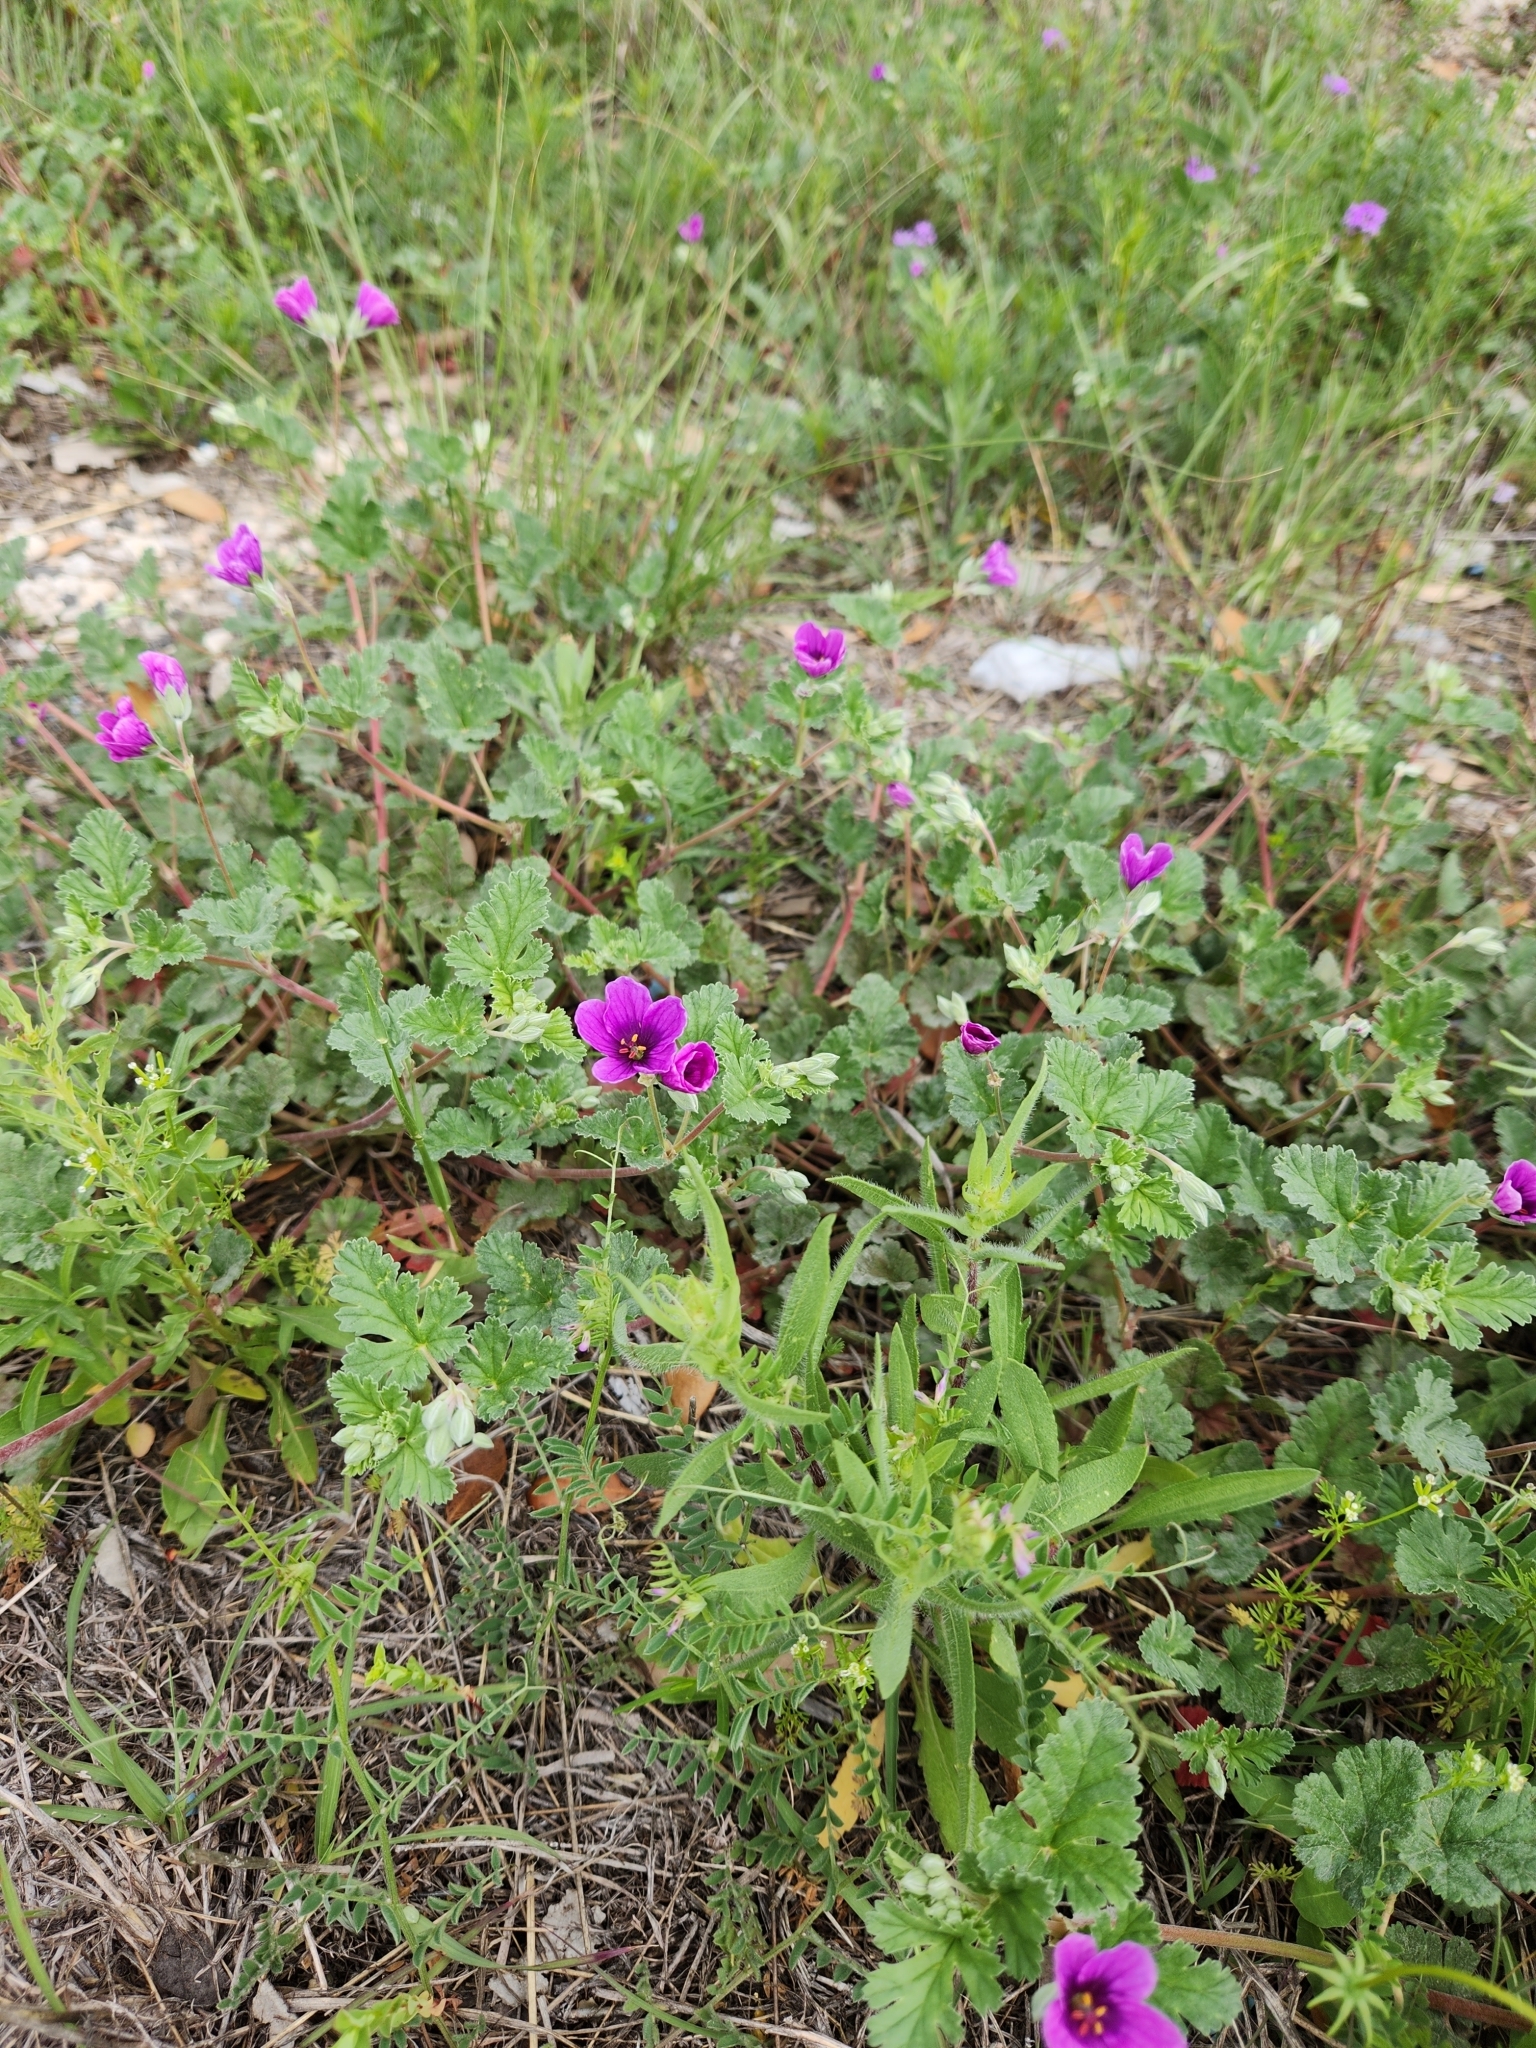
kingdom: Plantae
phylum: Tracheophyta
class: Magnoliopsida
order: Geraniales
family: Geraniaceae
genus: Erodium
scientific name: Erodium texanum
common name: Texas stork's-bill
